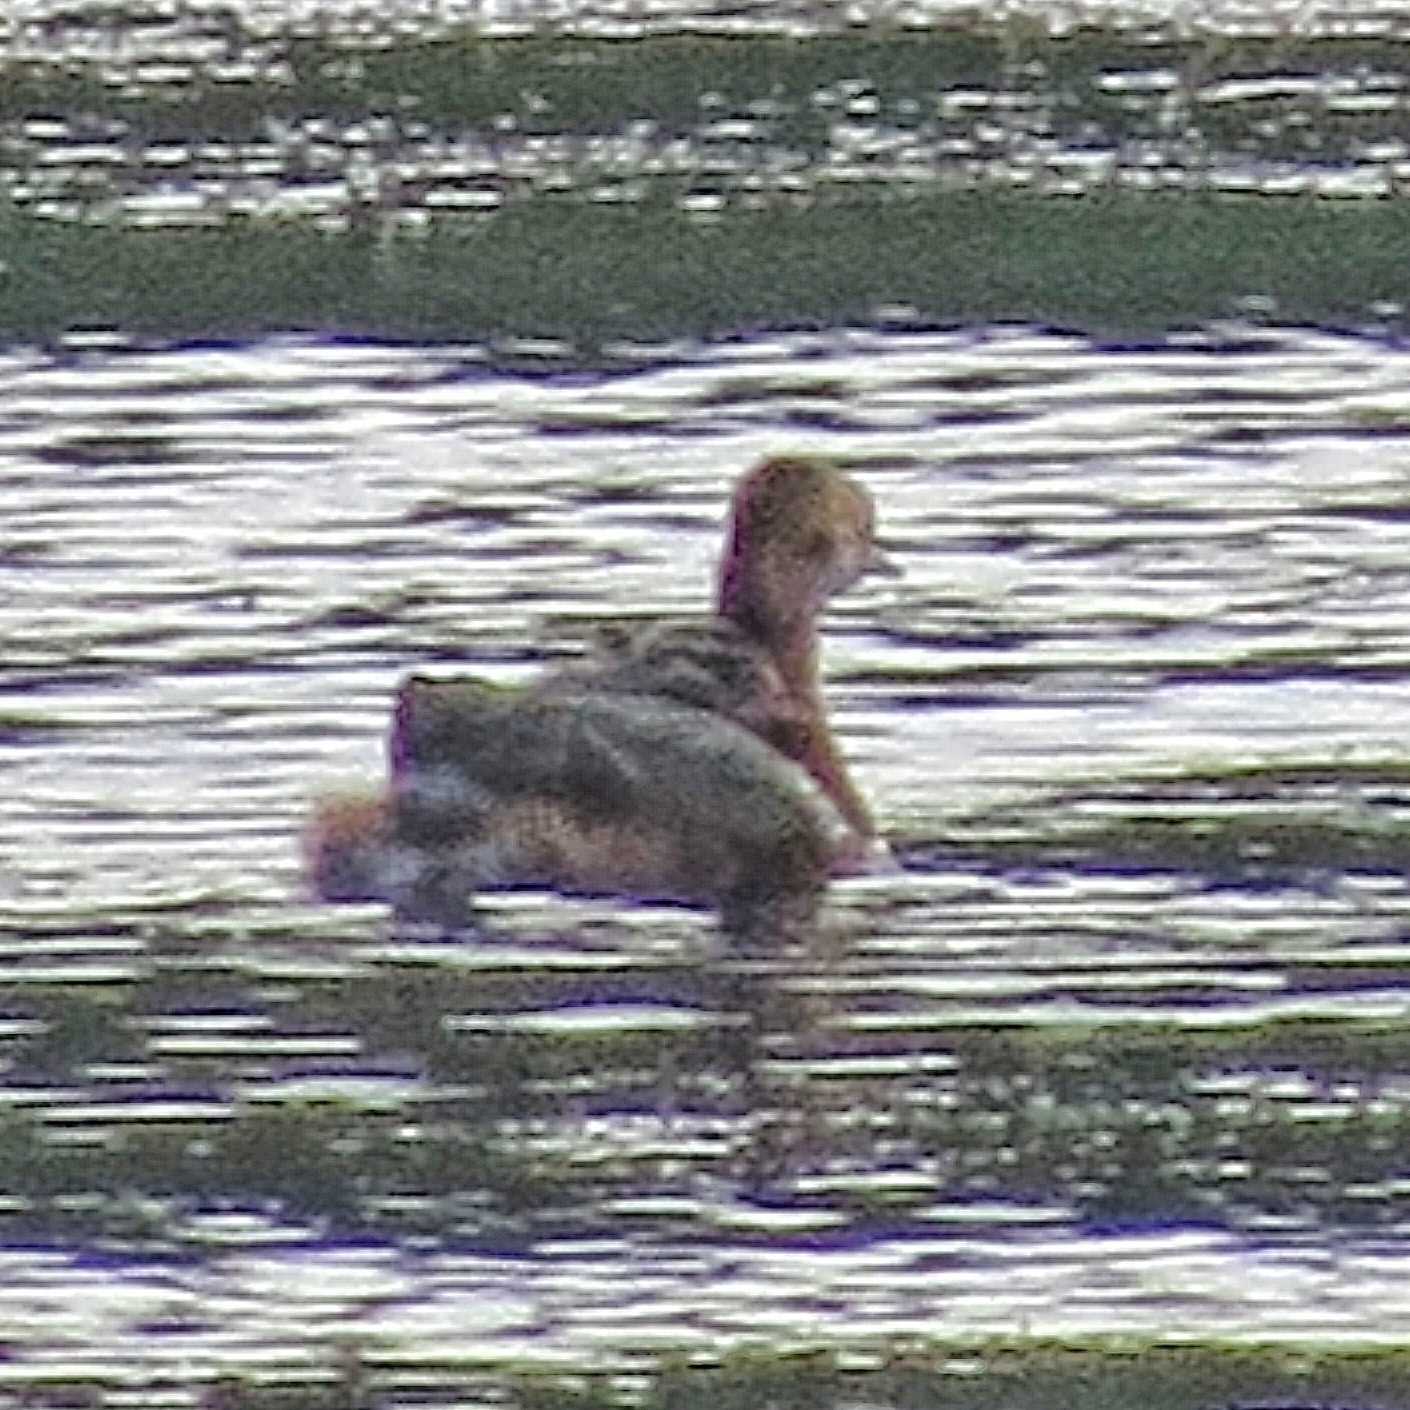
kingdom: Animalia
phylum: Chordata
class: Aves
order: Podicipediformes
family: Podicipedidae
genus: Podiceps
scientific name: Podiceps auritus
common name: Horned grebe
